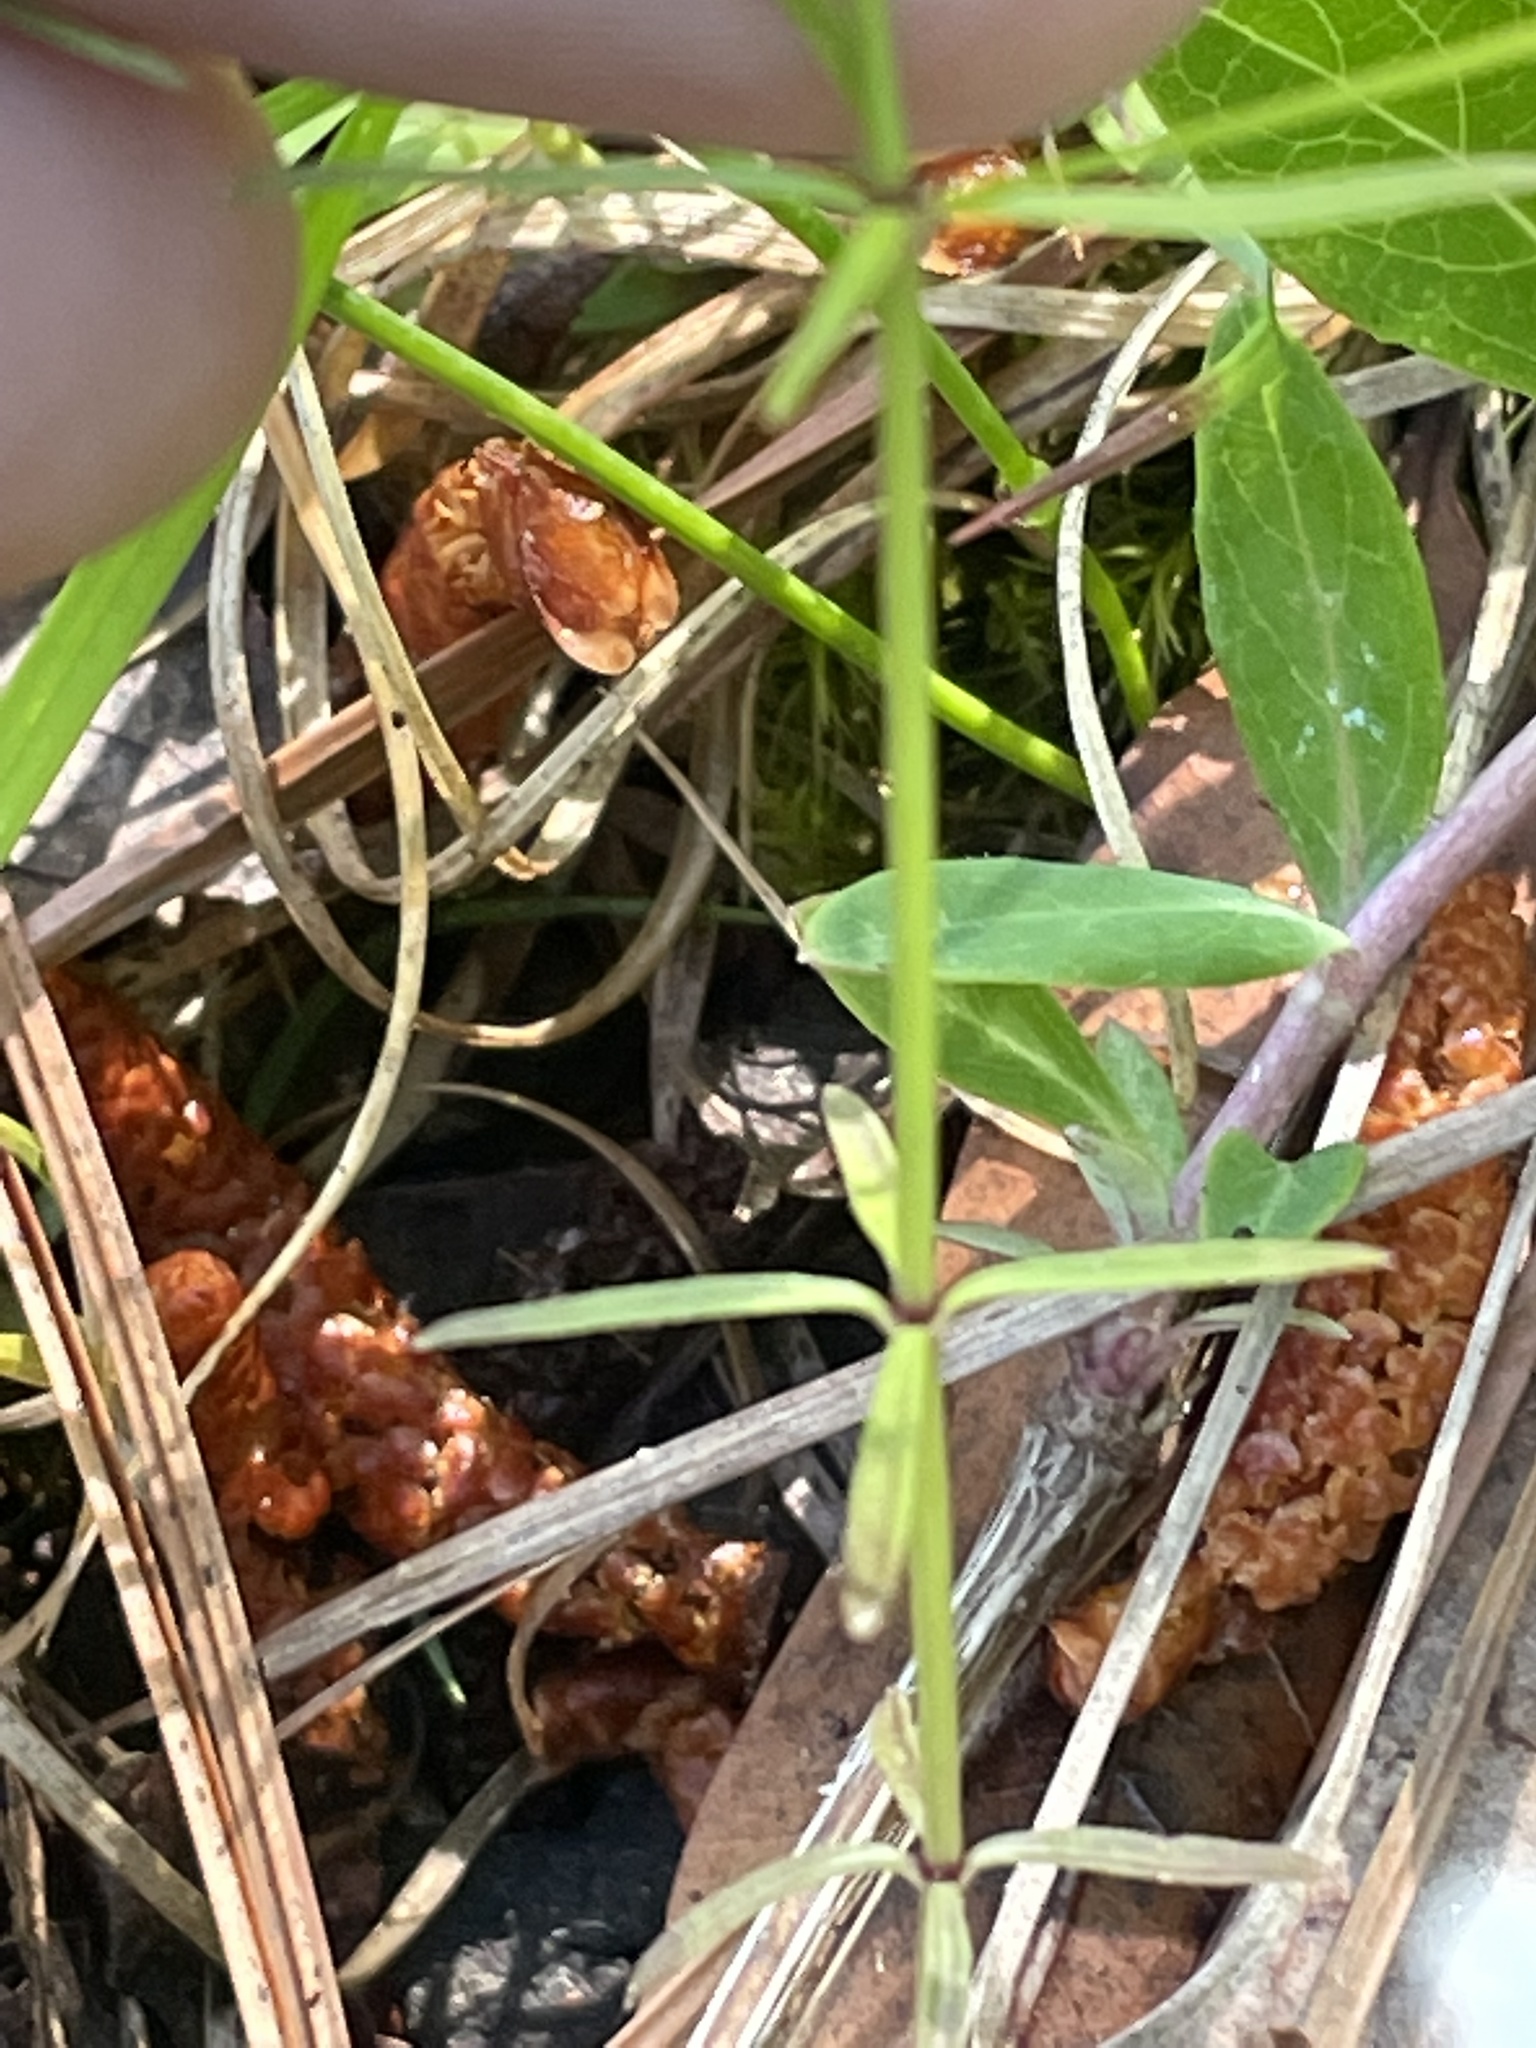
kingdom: Plantae
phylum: Tracheophyta
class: Magnoliopsida
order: Gentianales
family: Rubiaceae
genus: Galium
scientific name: Galium obtusum
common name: Blunt-leaved bedstraw
